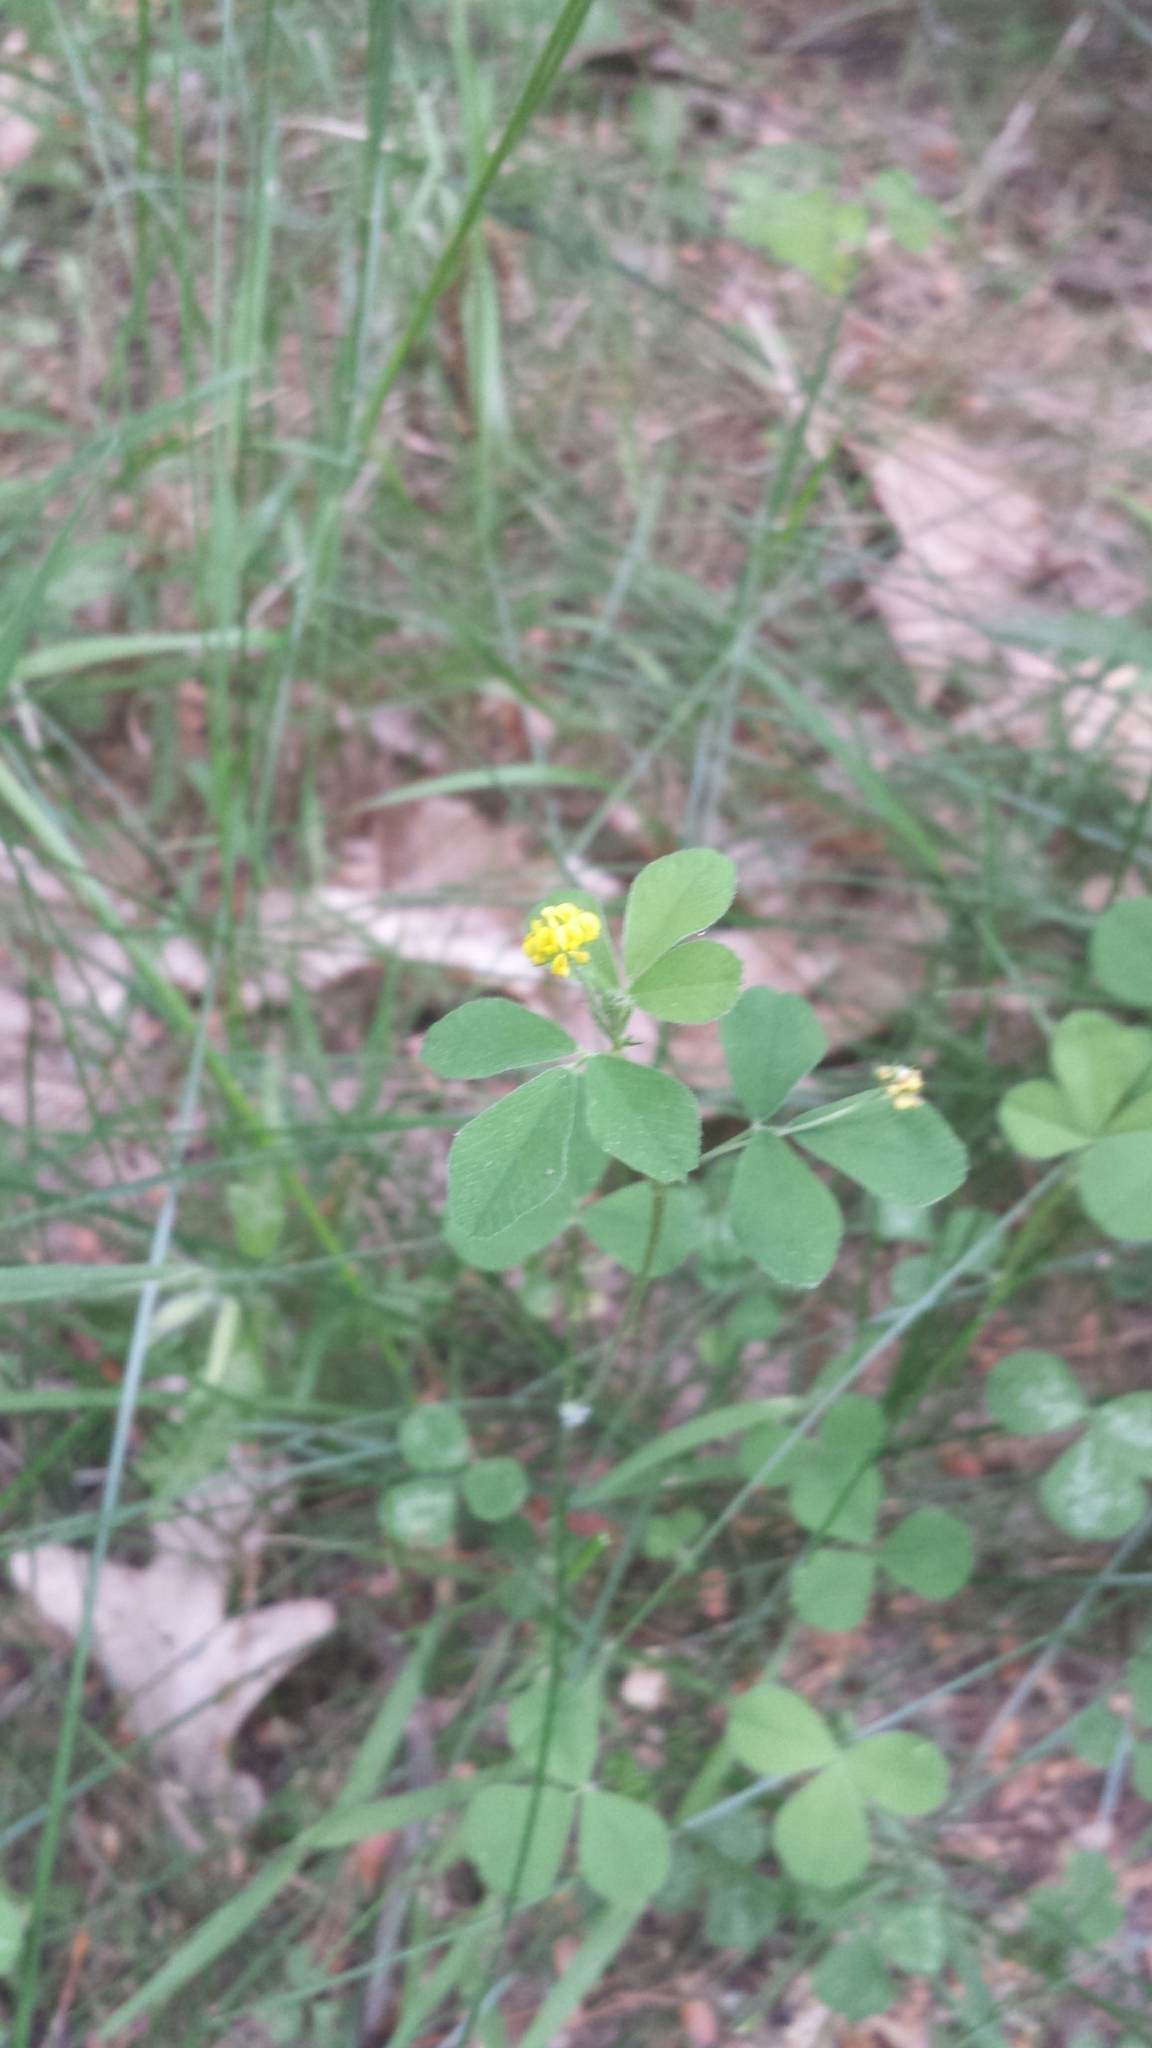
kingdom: Plantae
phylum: Tracheophyta
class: Magnoliopsida
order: Fabales
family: Fabaceae
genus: Medicago
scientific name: Medicago lupulina
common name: Black medick
